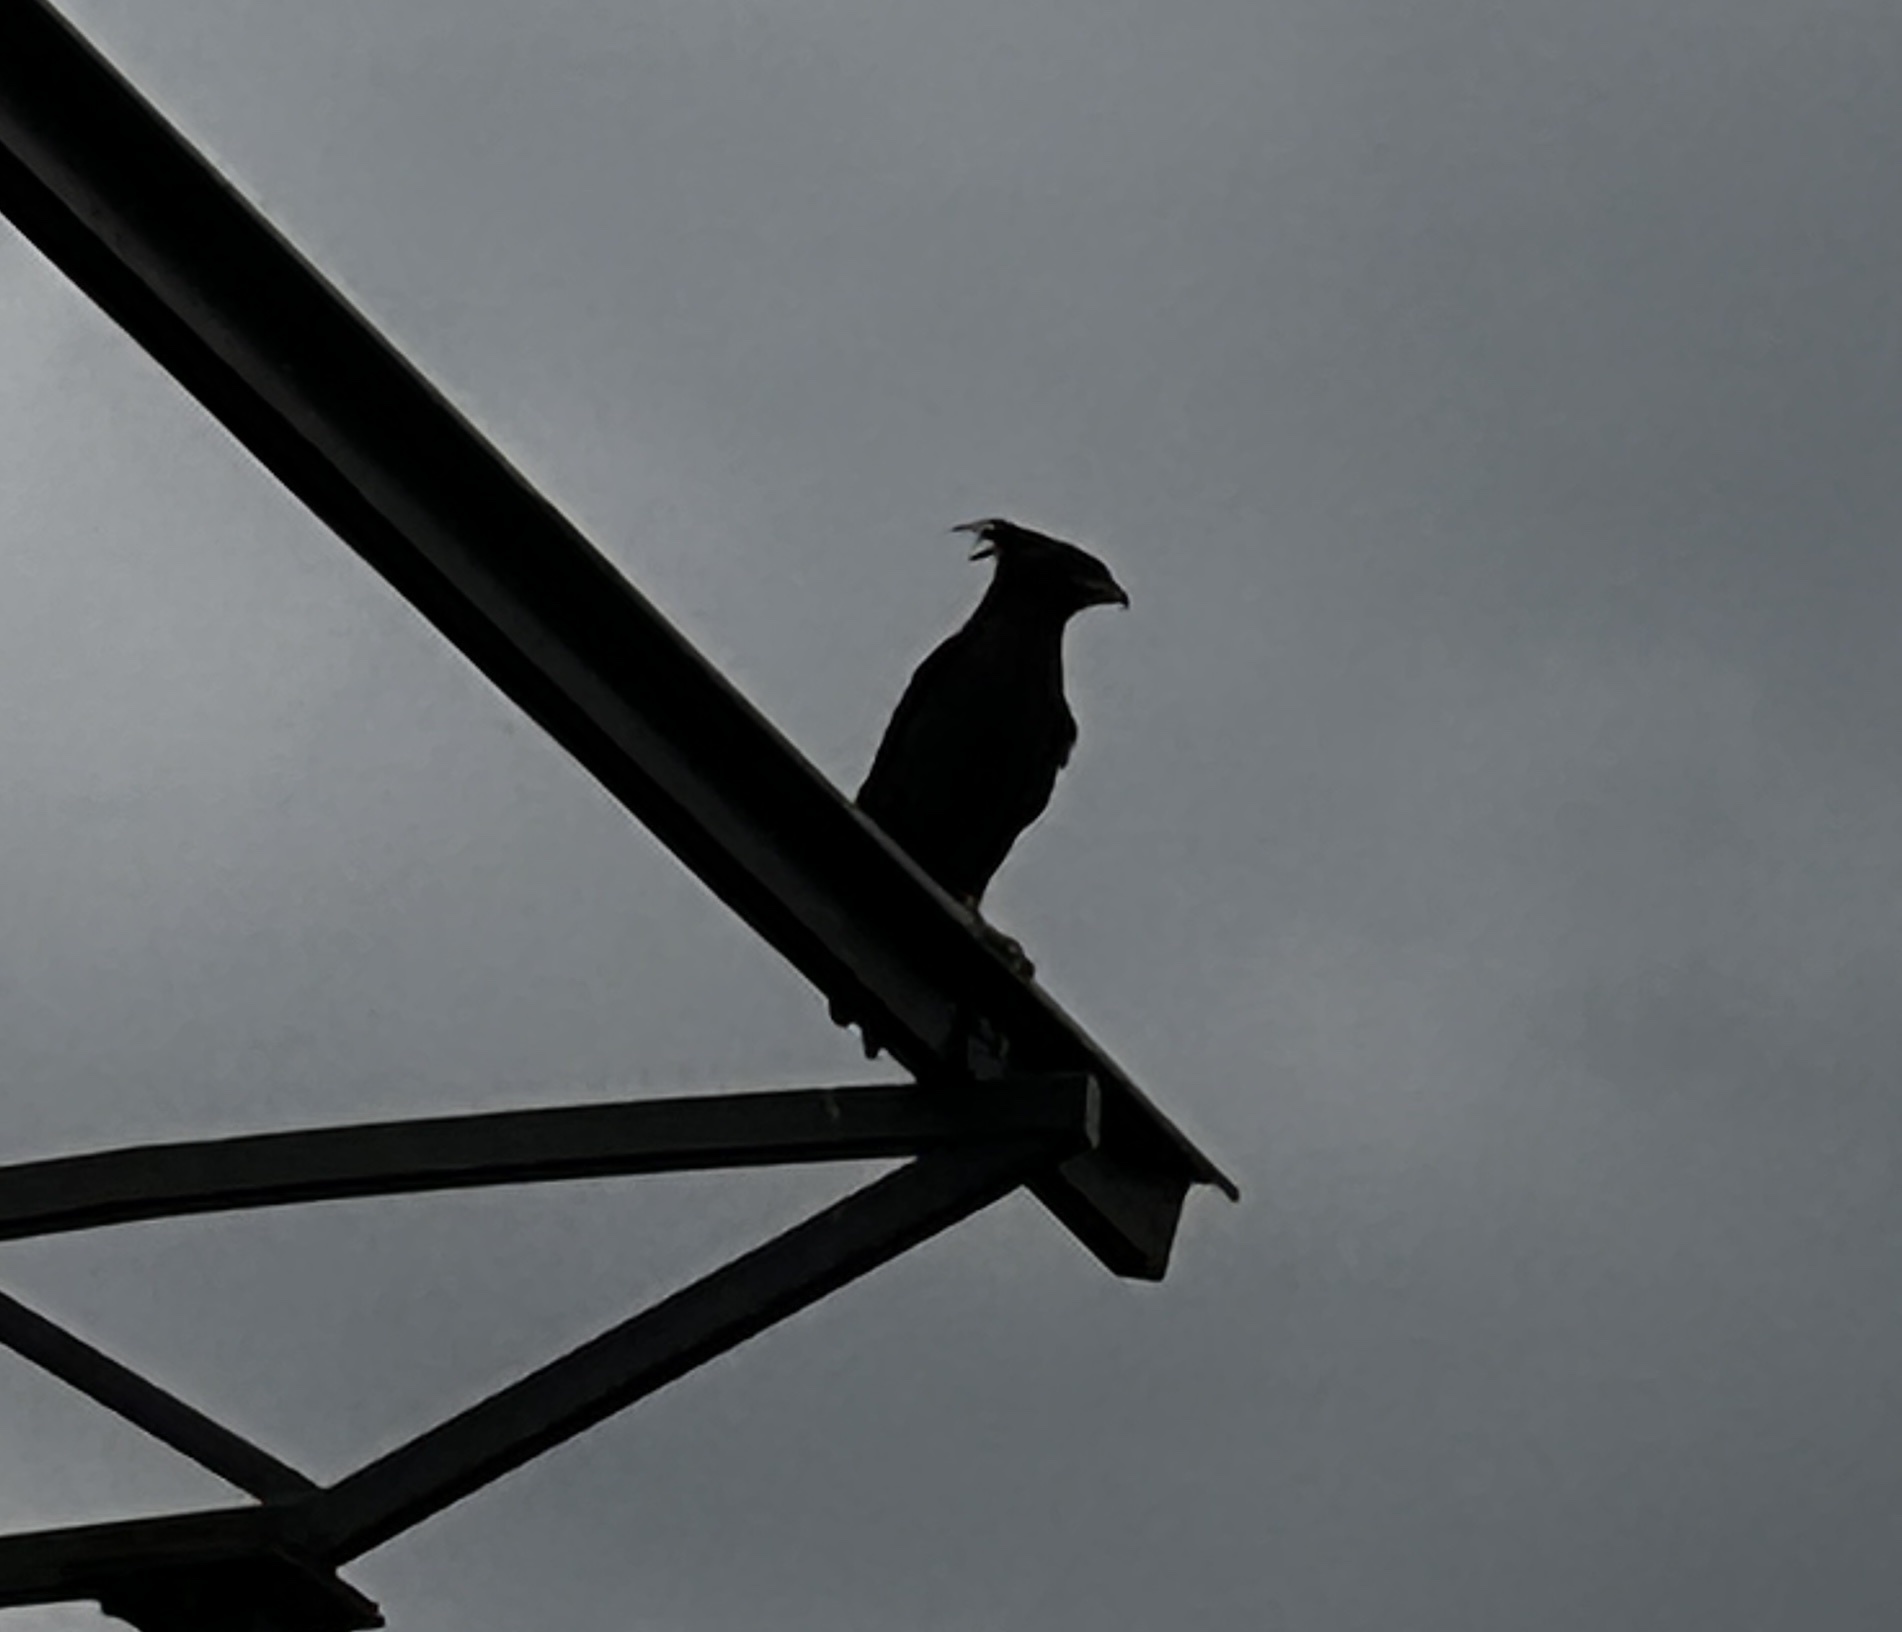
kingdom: Animalia
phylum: Chordata
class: Aves
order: Accipitriformes
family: Accipitridae
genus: Lophaetus
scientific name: Lophaetus occipitalis
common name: Long-crested eagle
